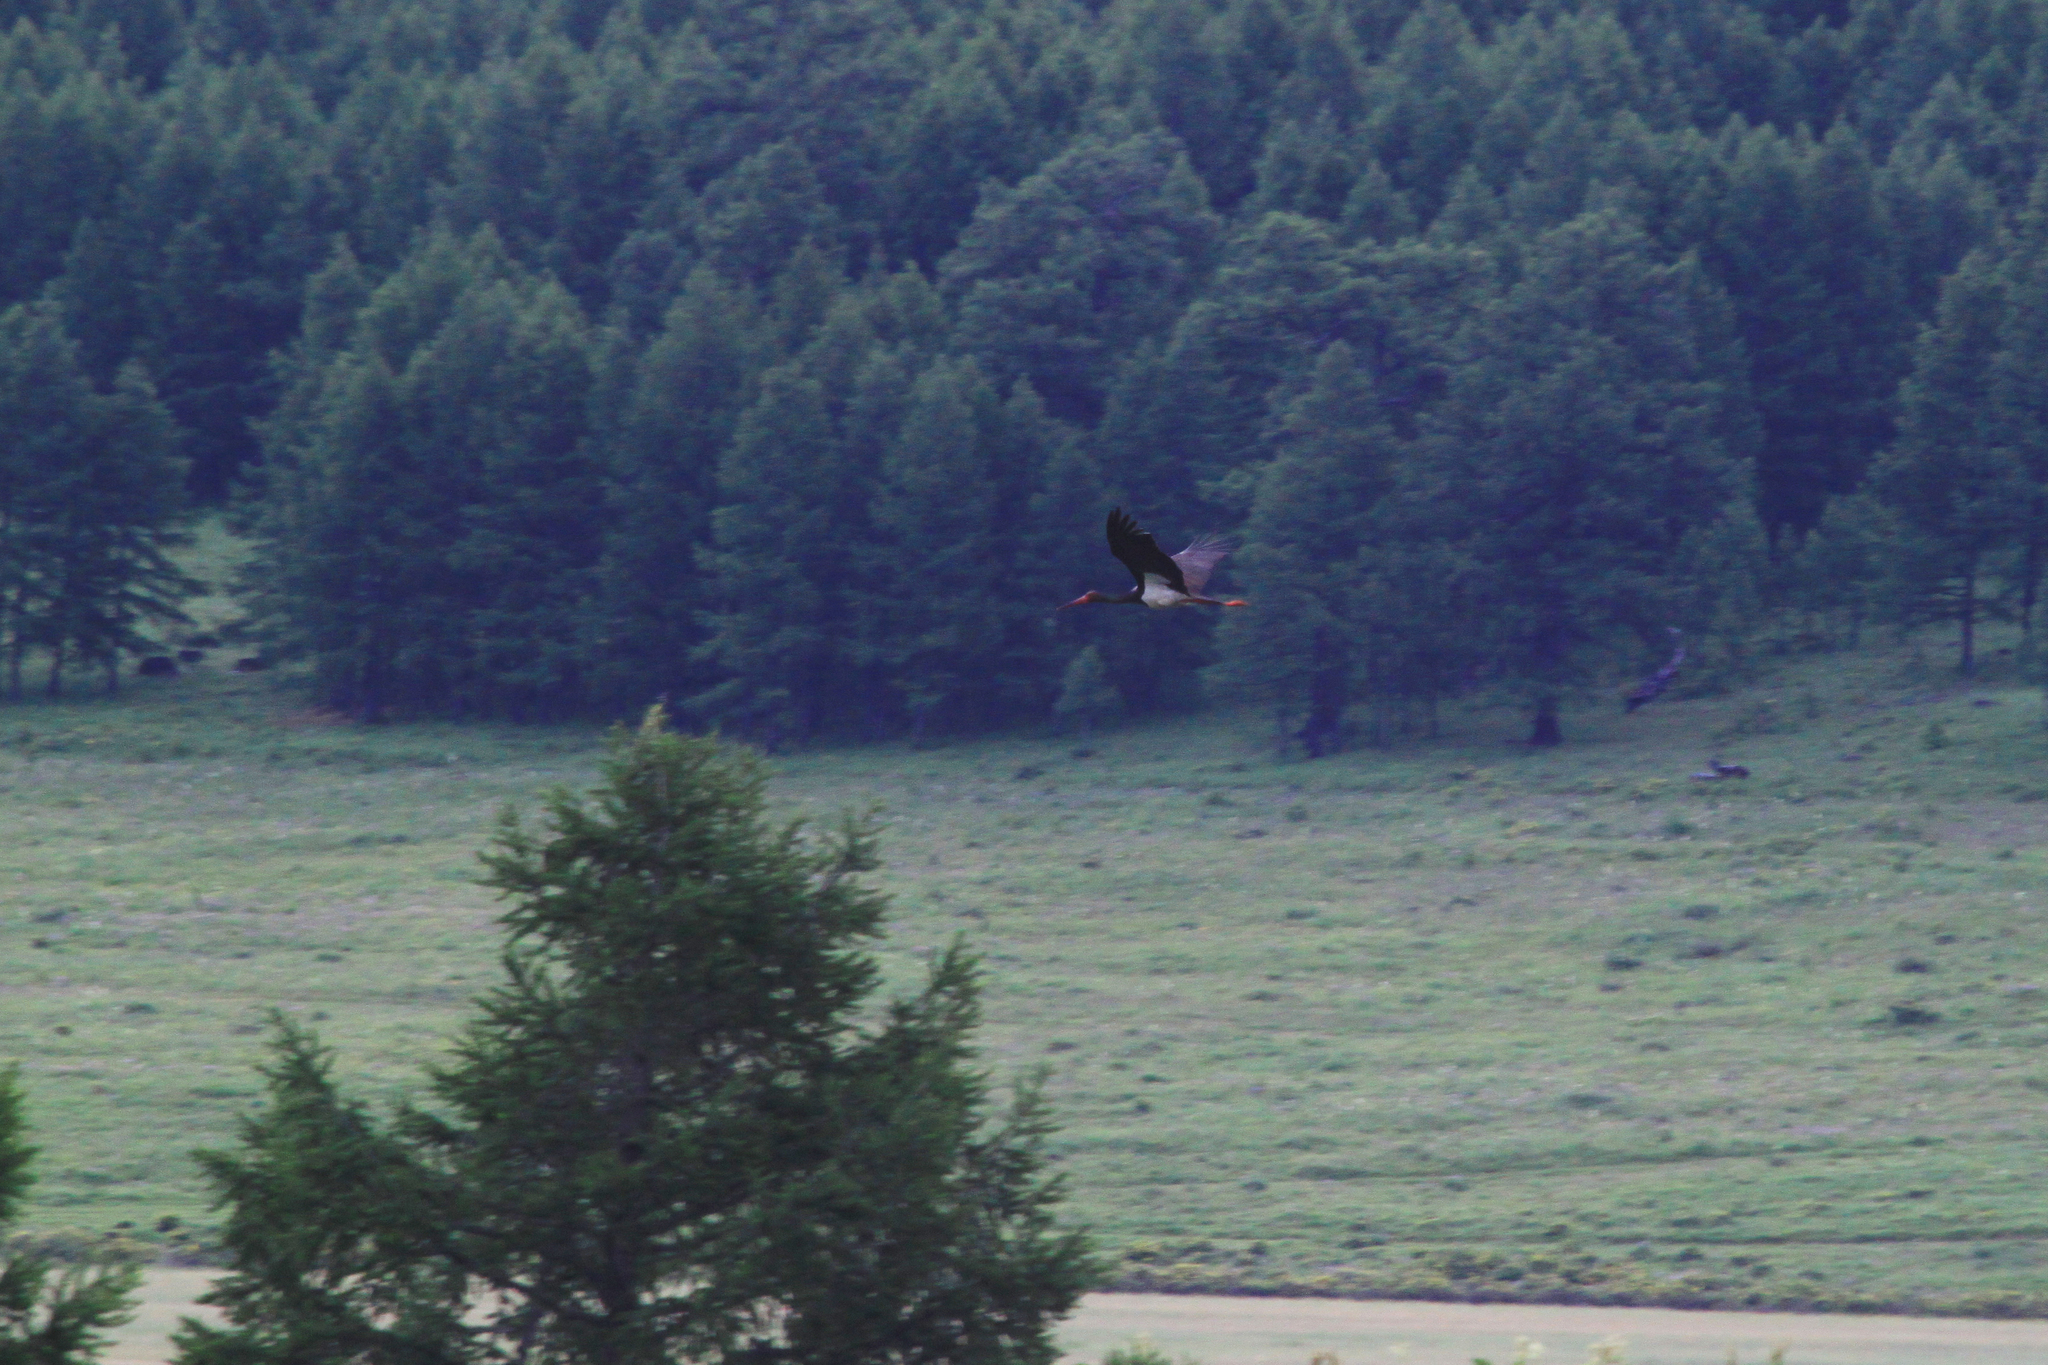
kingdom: Animalia
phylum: Chordata
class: Aves
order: Ciconiiformes
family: Ciconiidae
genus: Ciconia
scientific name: Ciconia nigra
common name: Black stork
